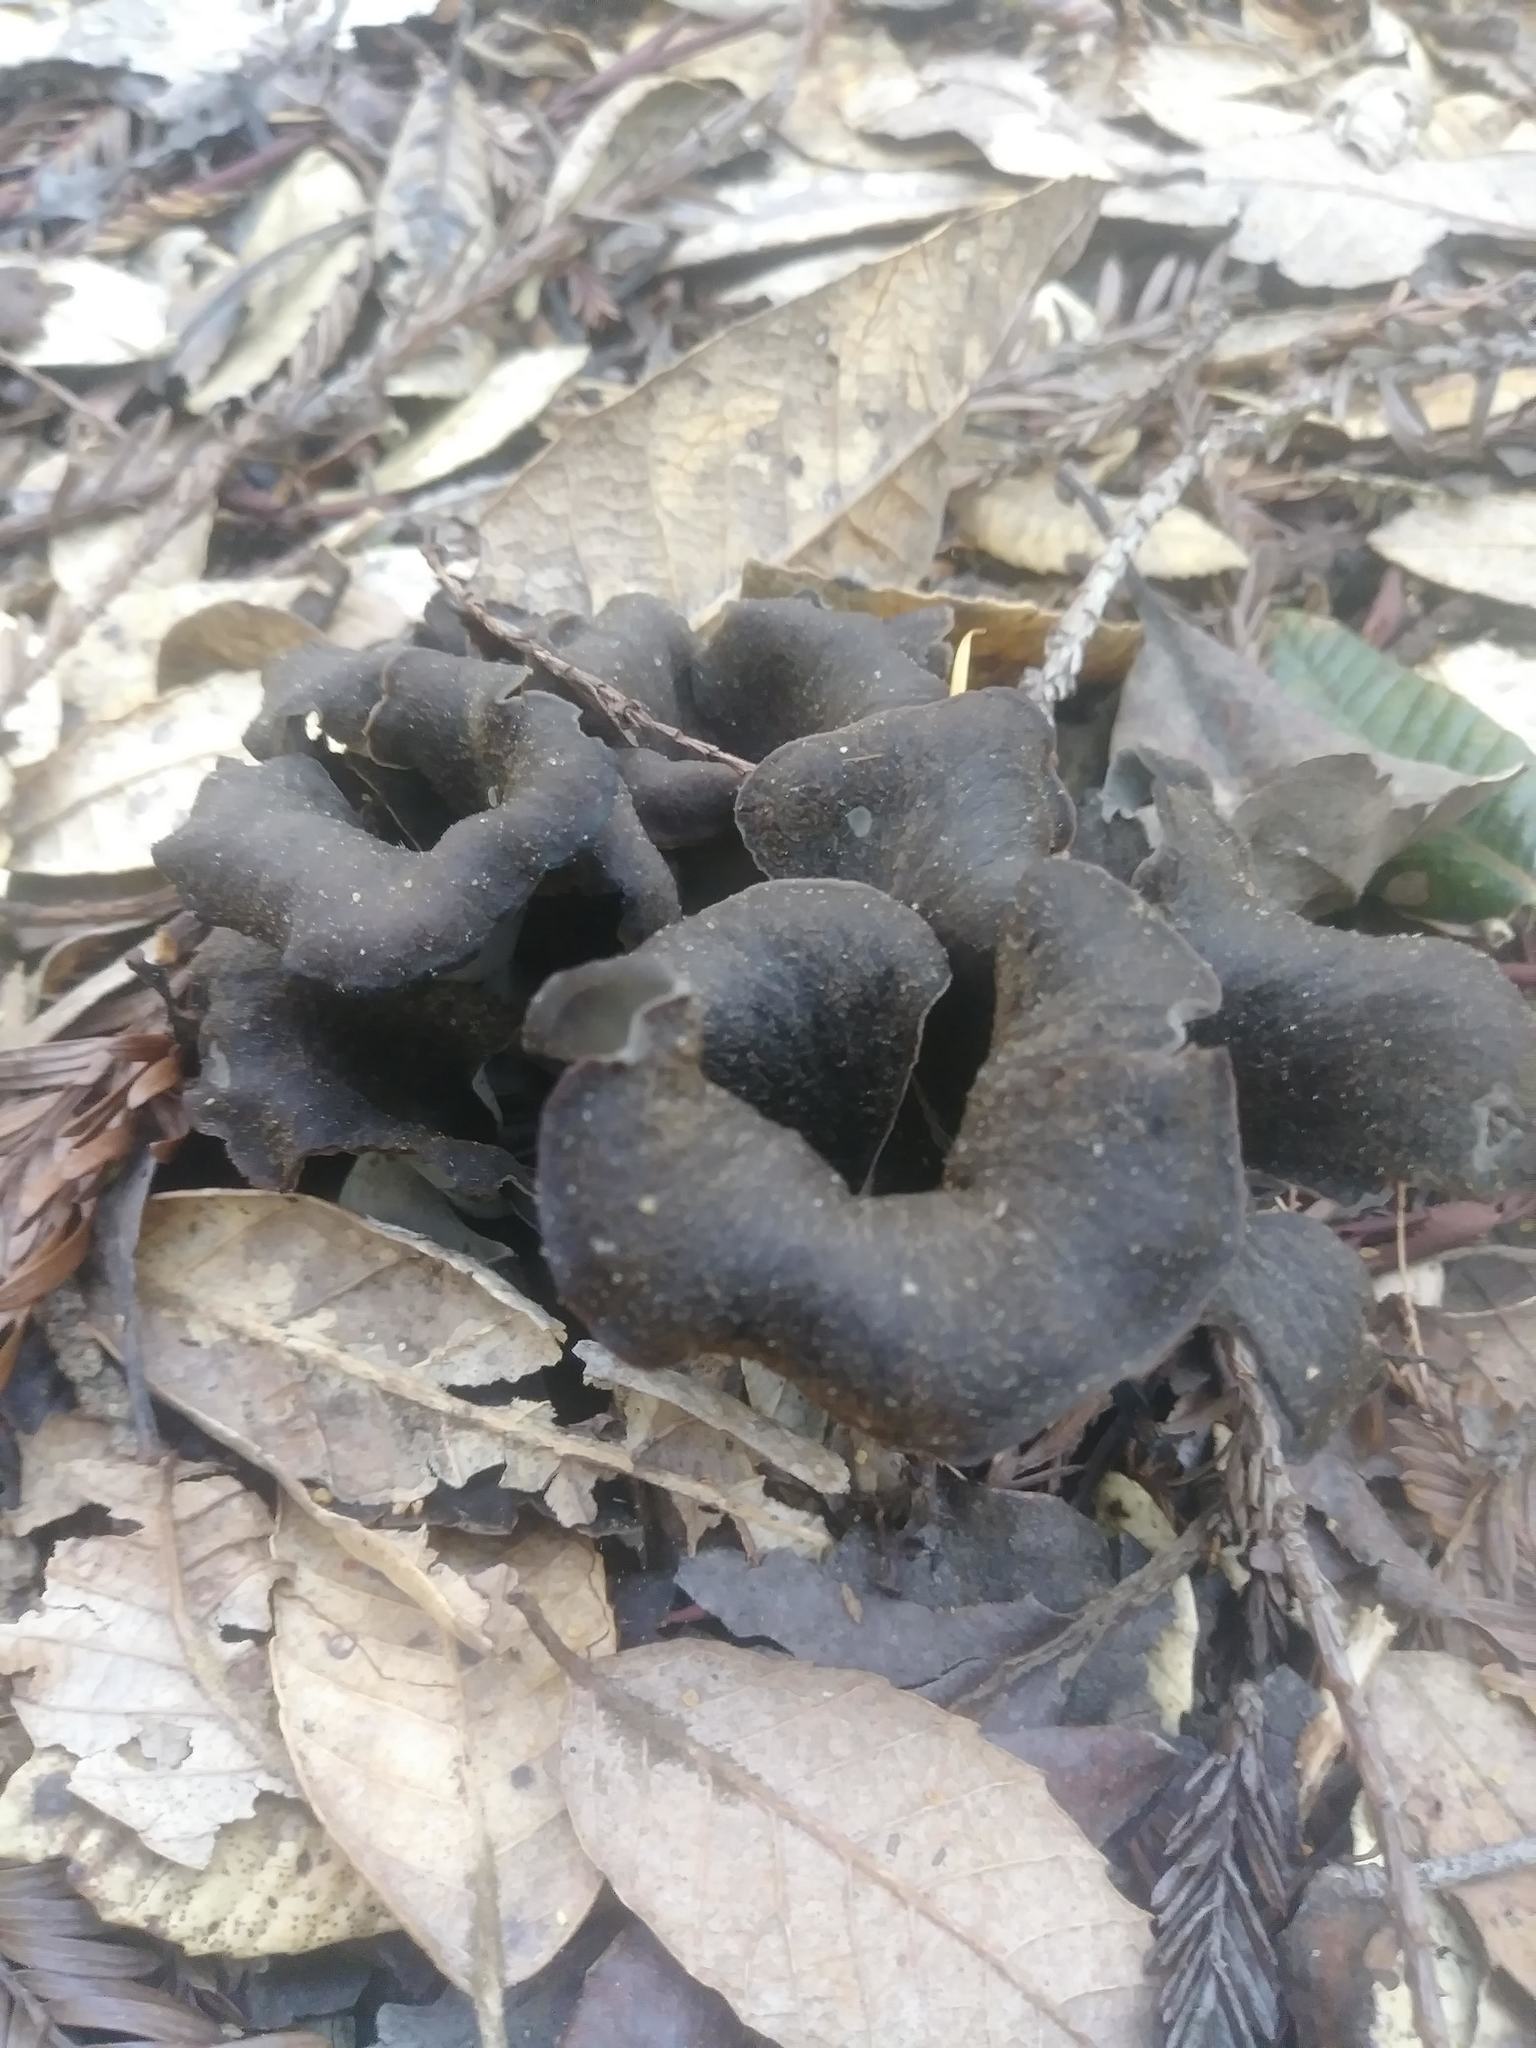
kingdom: Fungi
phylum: Basidiomycota
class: Agaricomycetes
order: Cantharellales
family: Hydnaceae
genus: Craterellus
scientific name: Craterellus calicornucopioides
